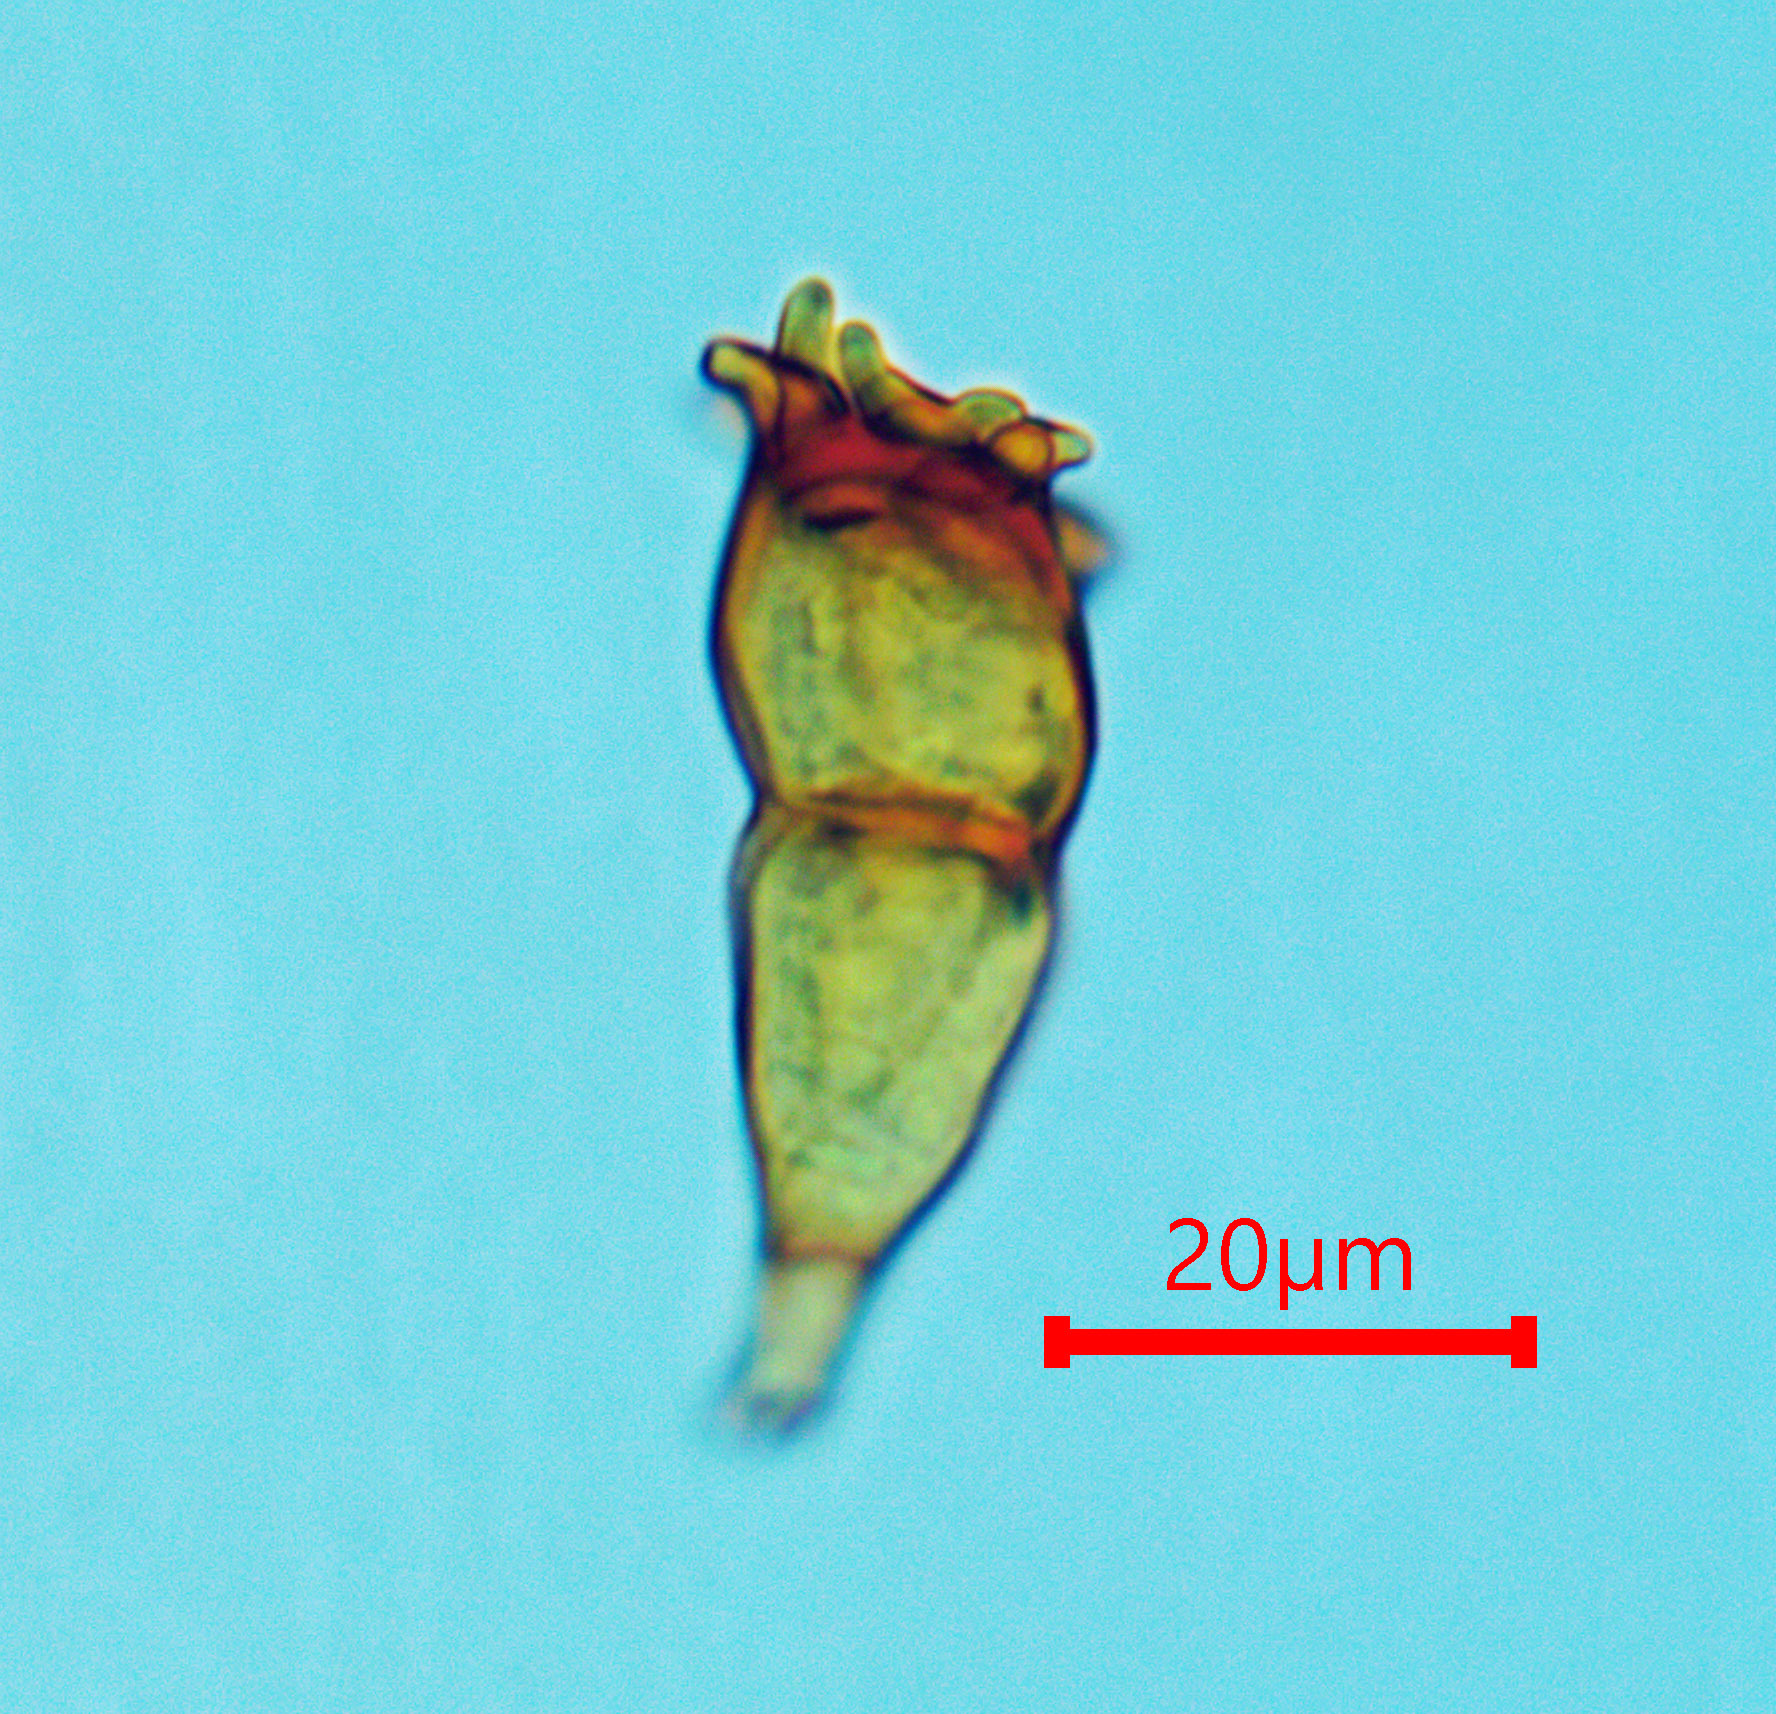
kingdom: Fungi
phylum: Basidiomycota
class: Pucciniomycetes
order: Pucciniales
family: Pucciniaceae
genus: Puccinia
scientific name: Puccinia coronata
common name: Crown rust
